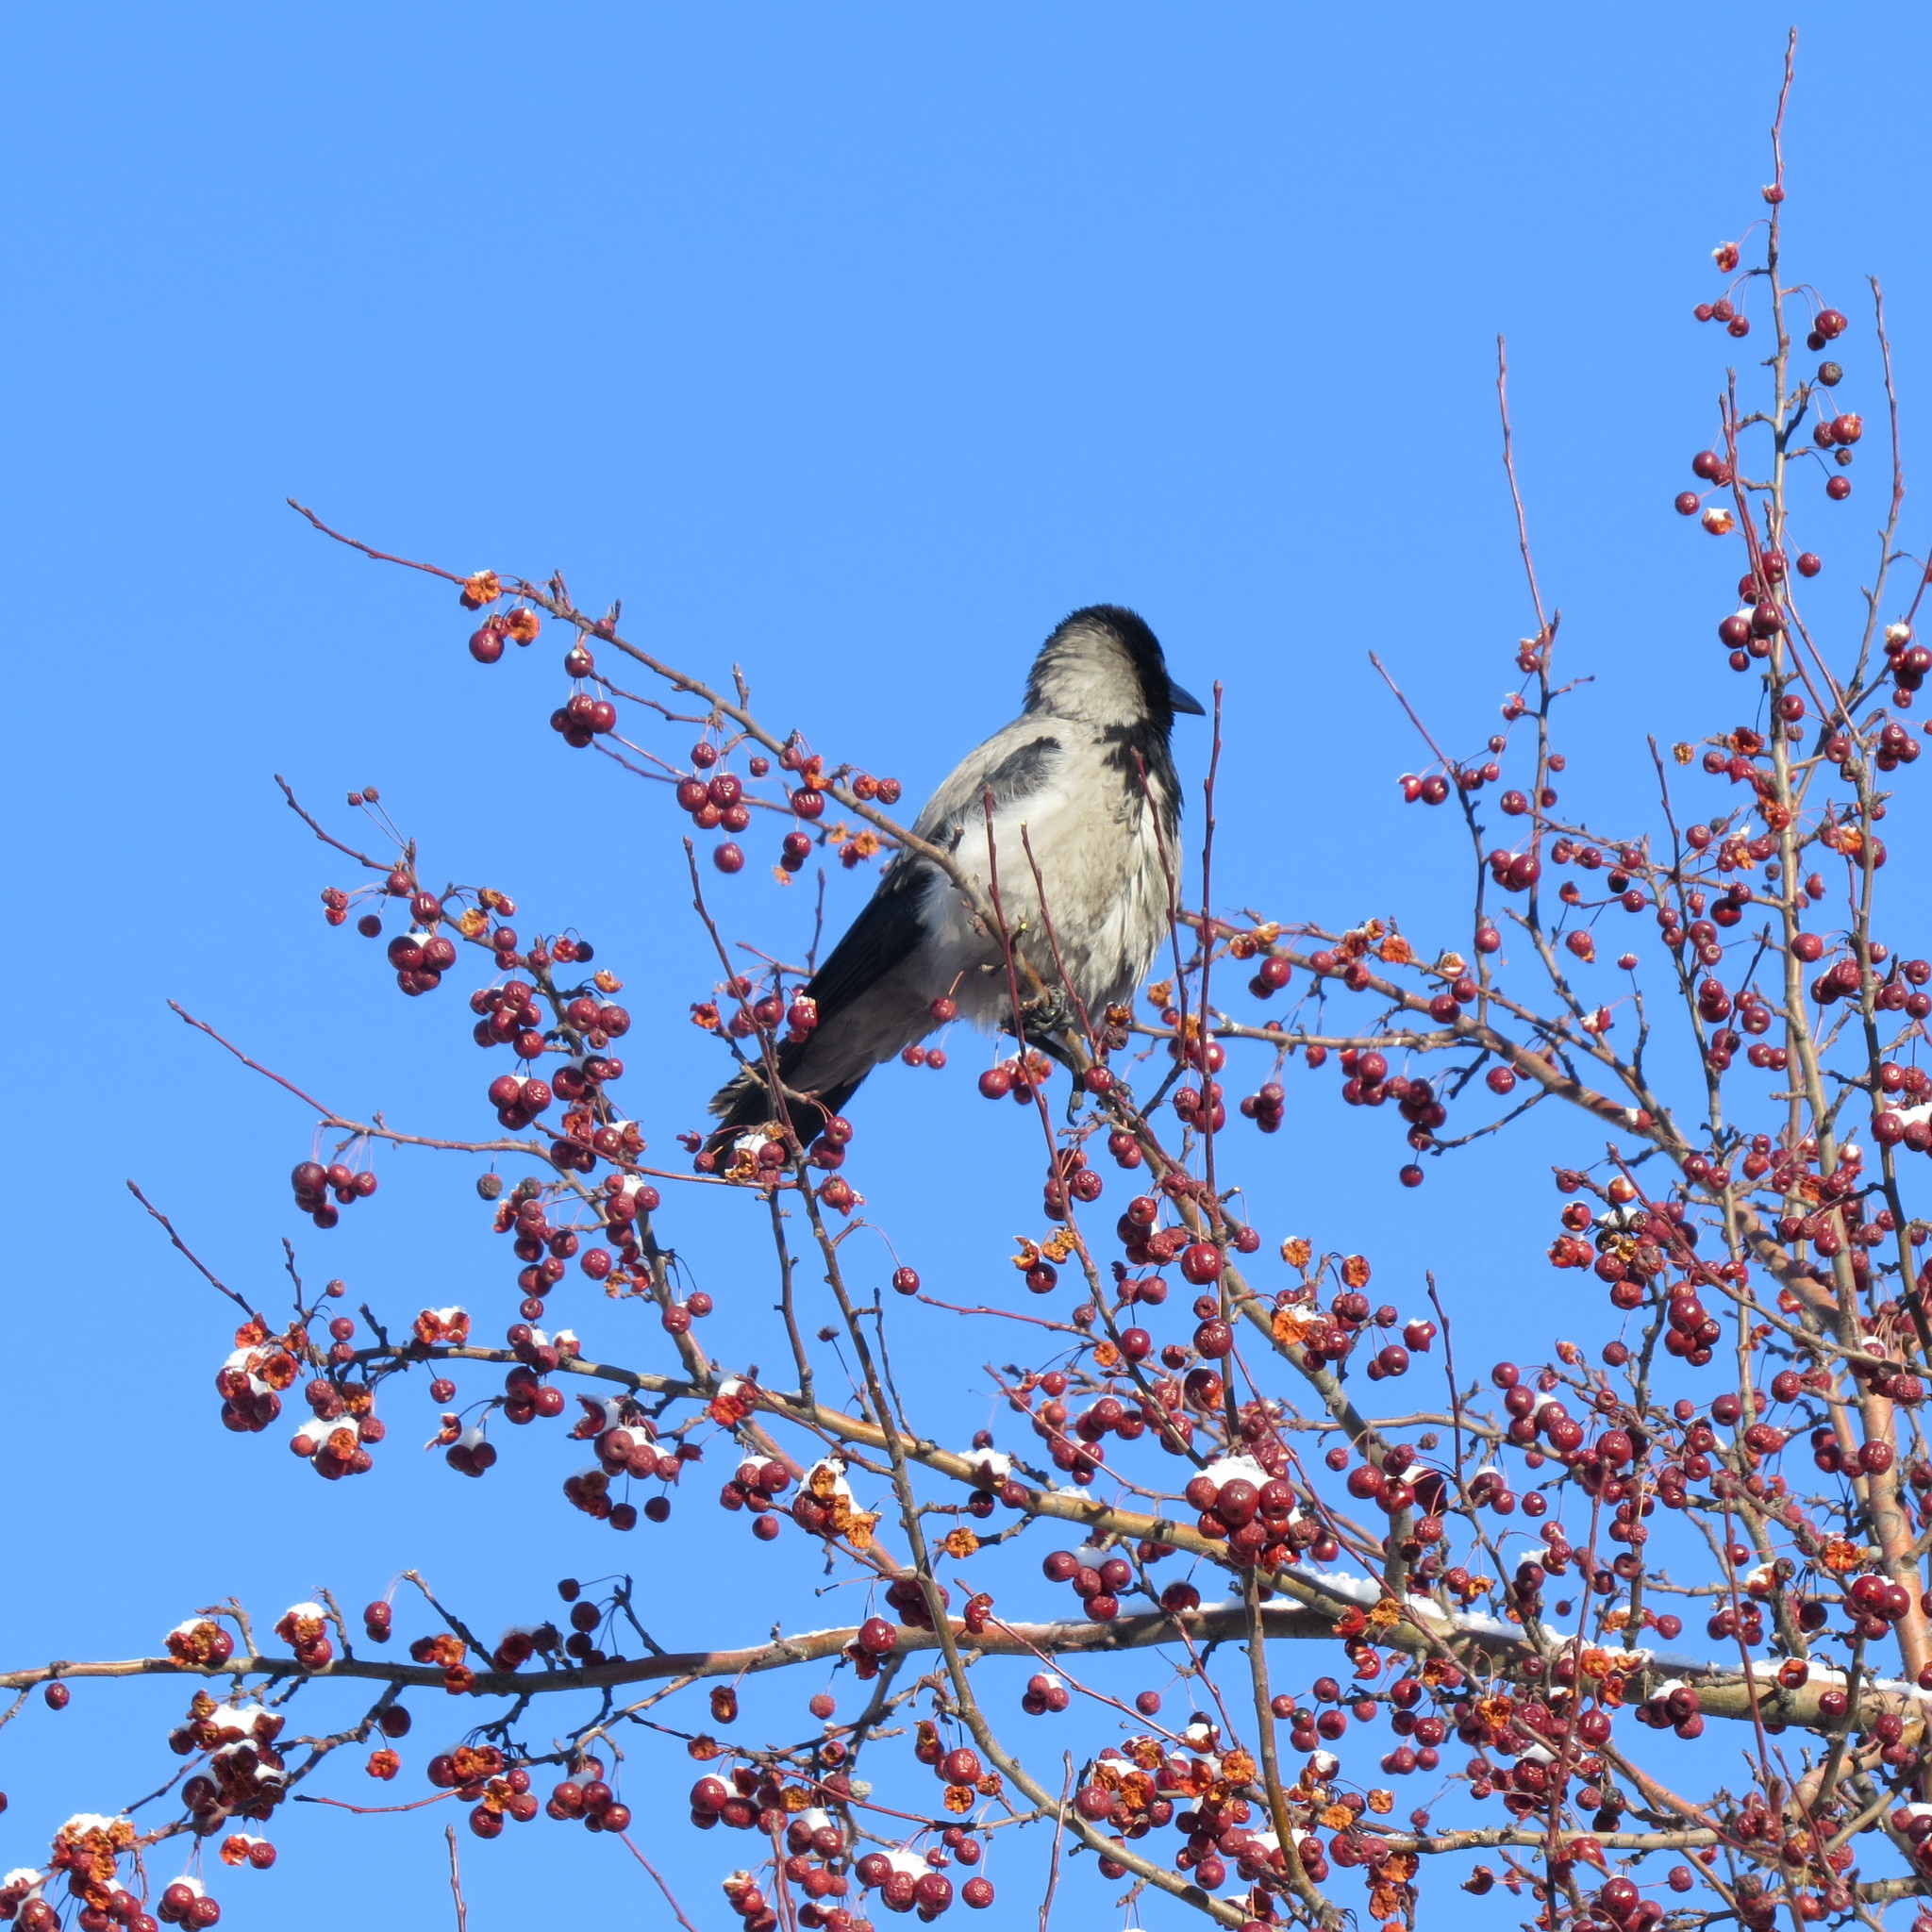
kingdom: Animalia
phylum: Chordata
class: Aves
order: Passeriformes
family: Corvidae
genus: Corvus
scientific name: Corvus cornix
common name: Hooded crow
